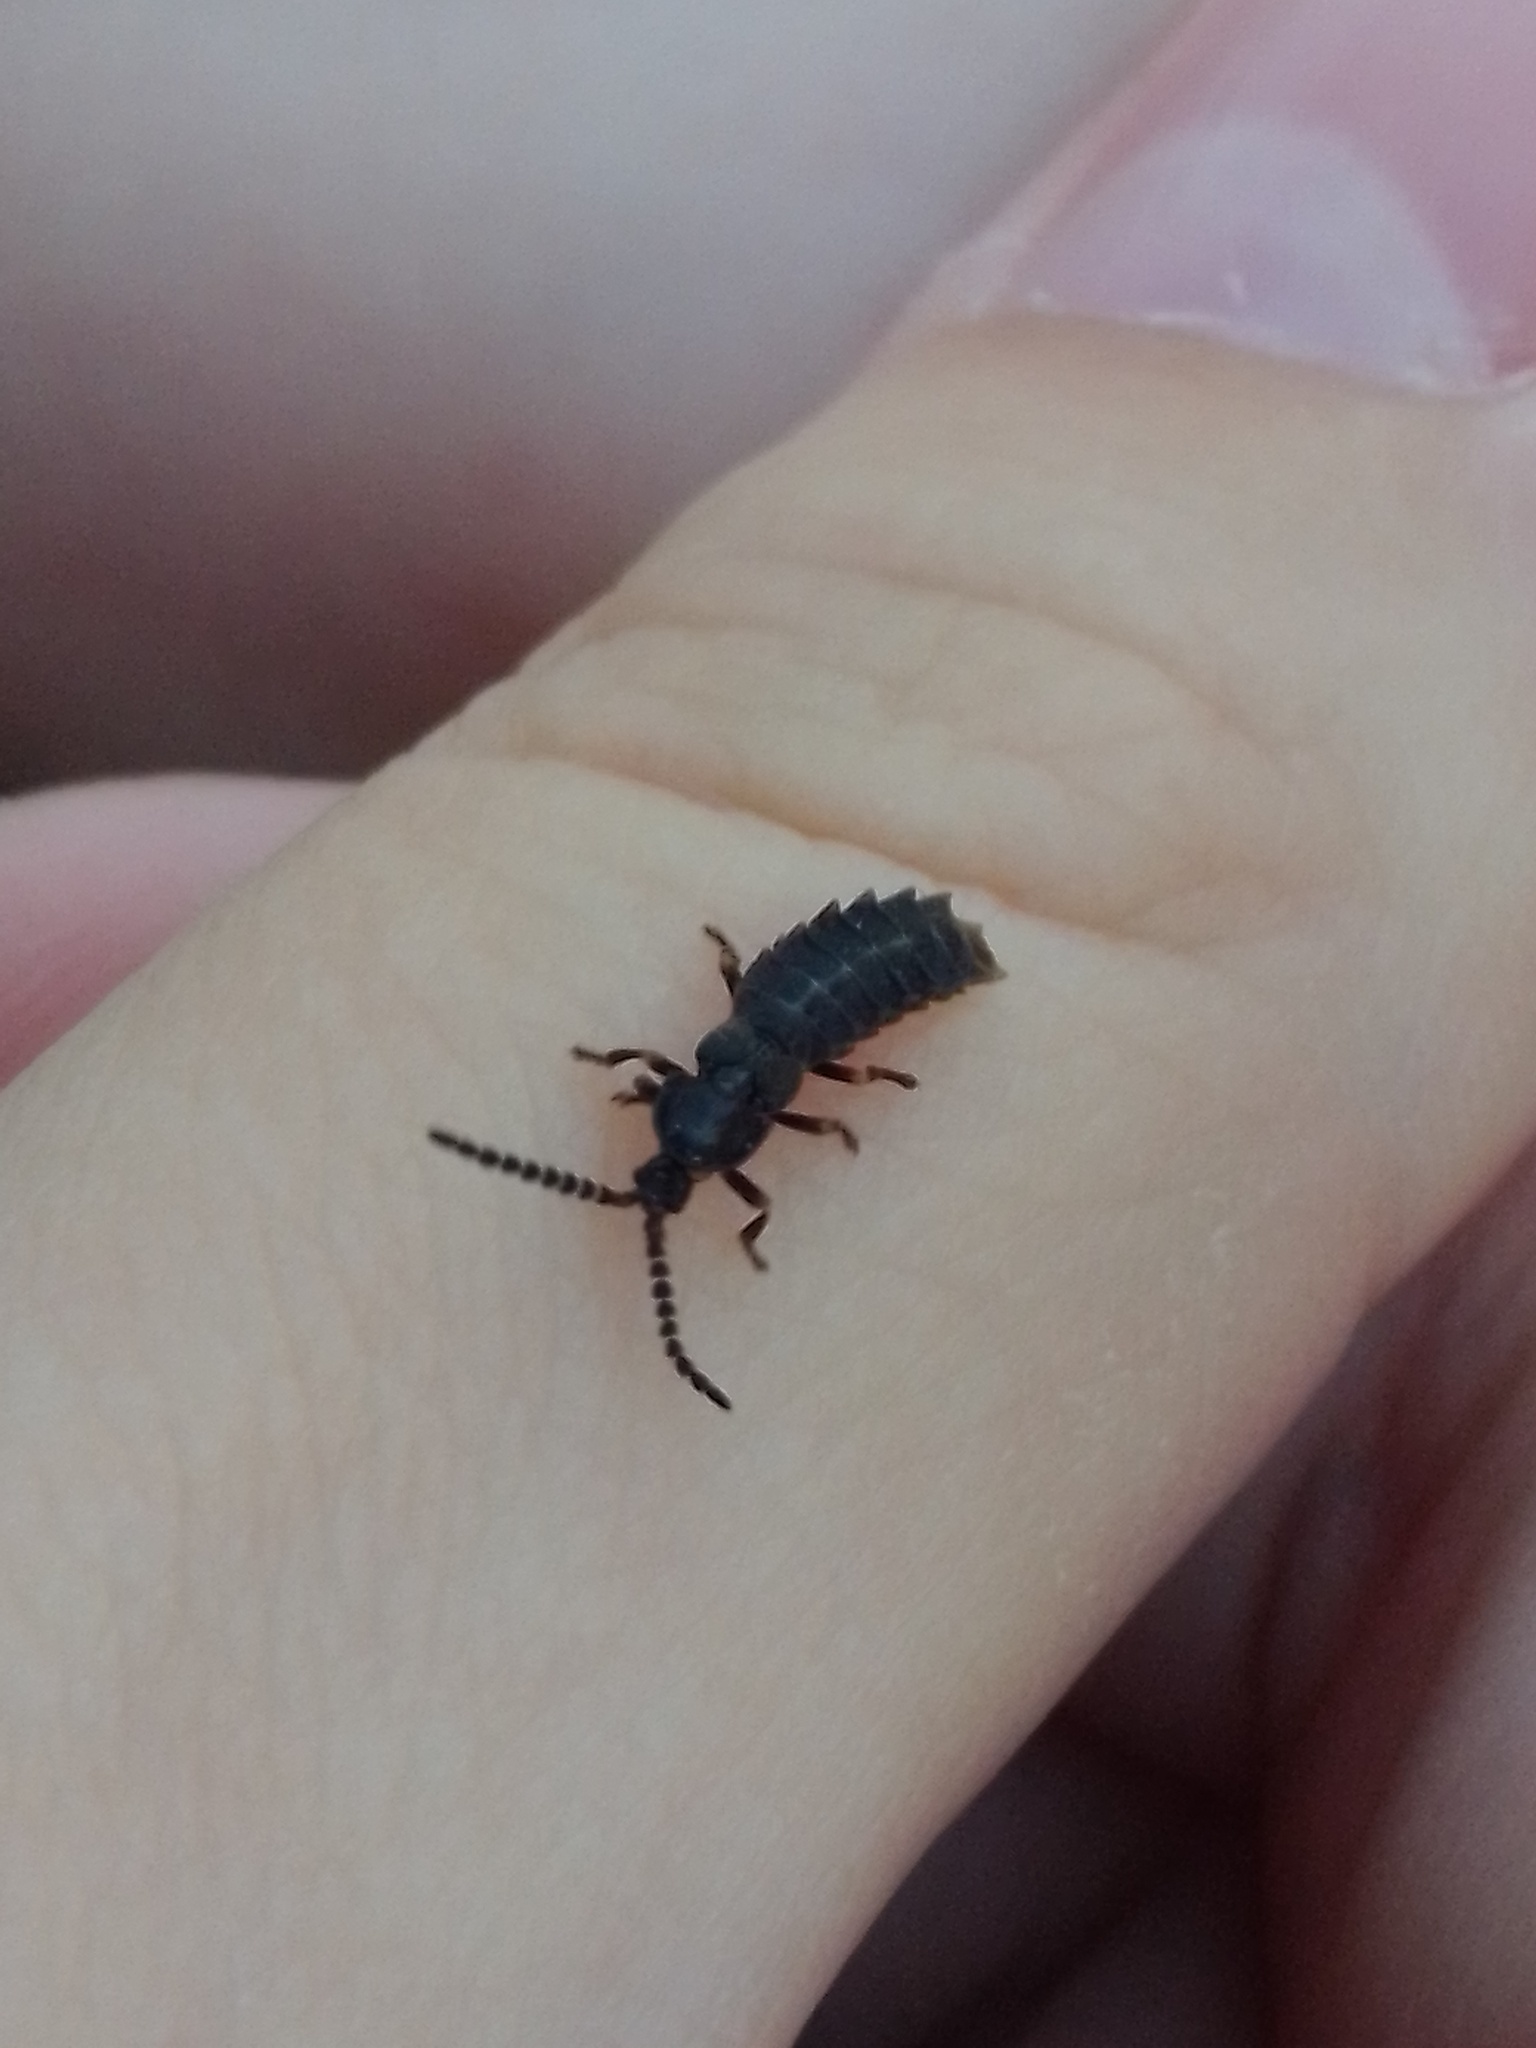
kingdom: Animalia
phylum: Arthropoda
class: Insecta
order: Coleoptera
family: Lampyridae
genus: Phosphaenus
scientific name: Phosphaenus hemipterus
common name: Short-winged firefly
